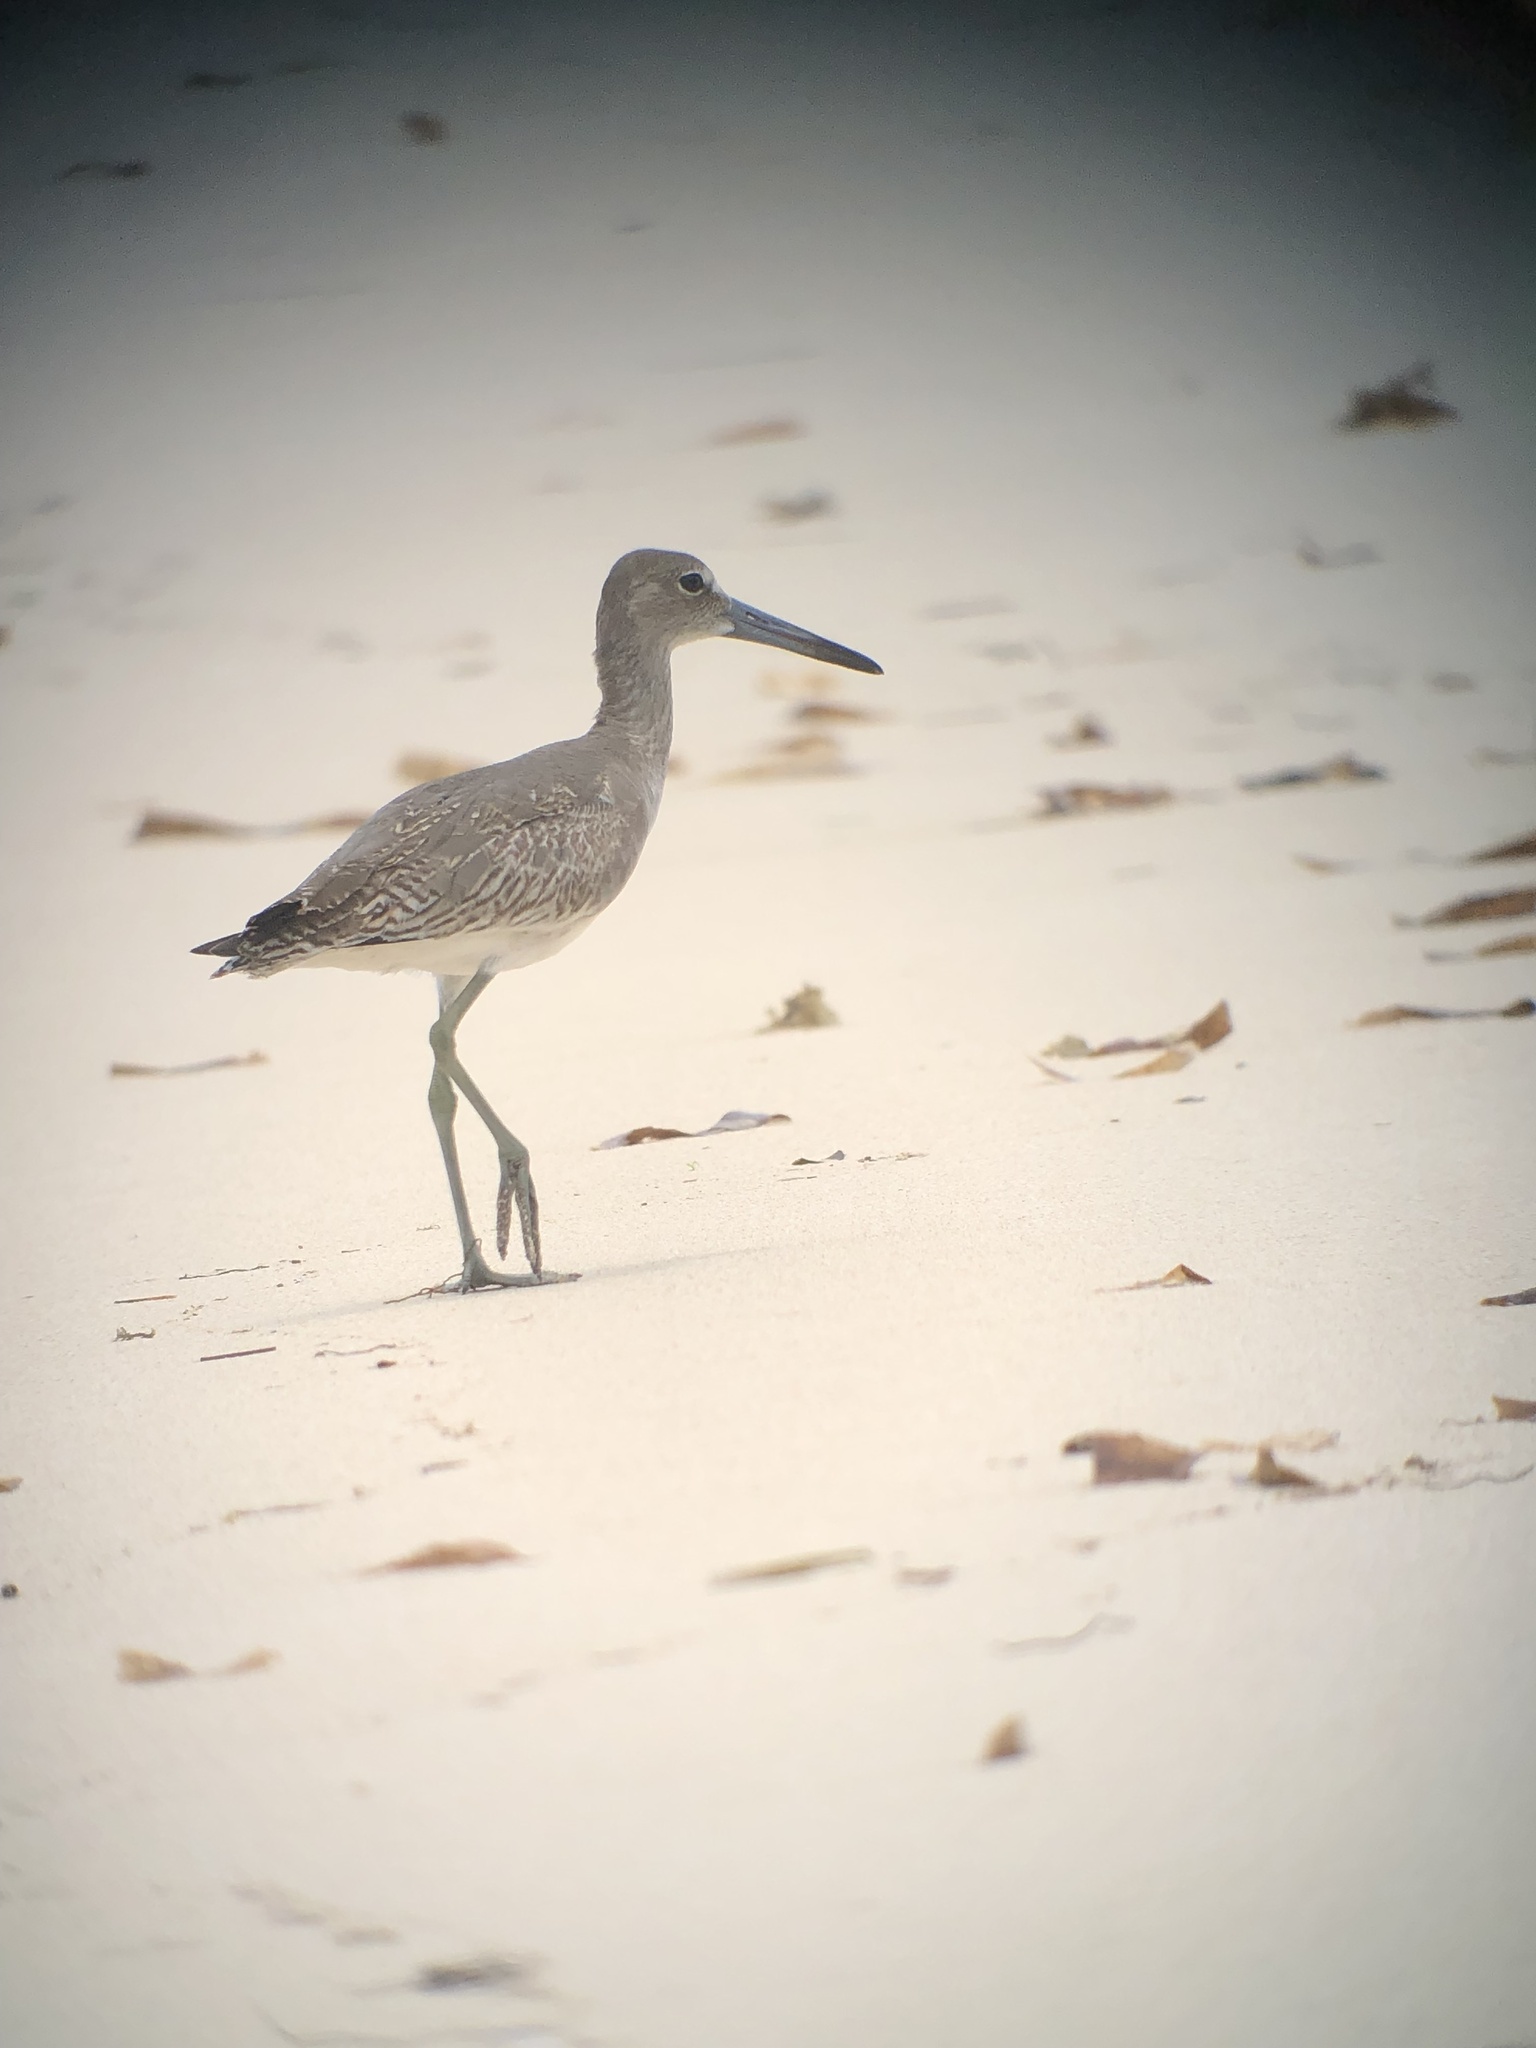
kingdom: Animalia
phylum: Chordata
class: Aves
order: Charadriiformes
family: Scolopacidae
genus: Tringa
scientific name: Tringa semipalmata
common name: Willet
